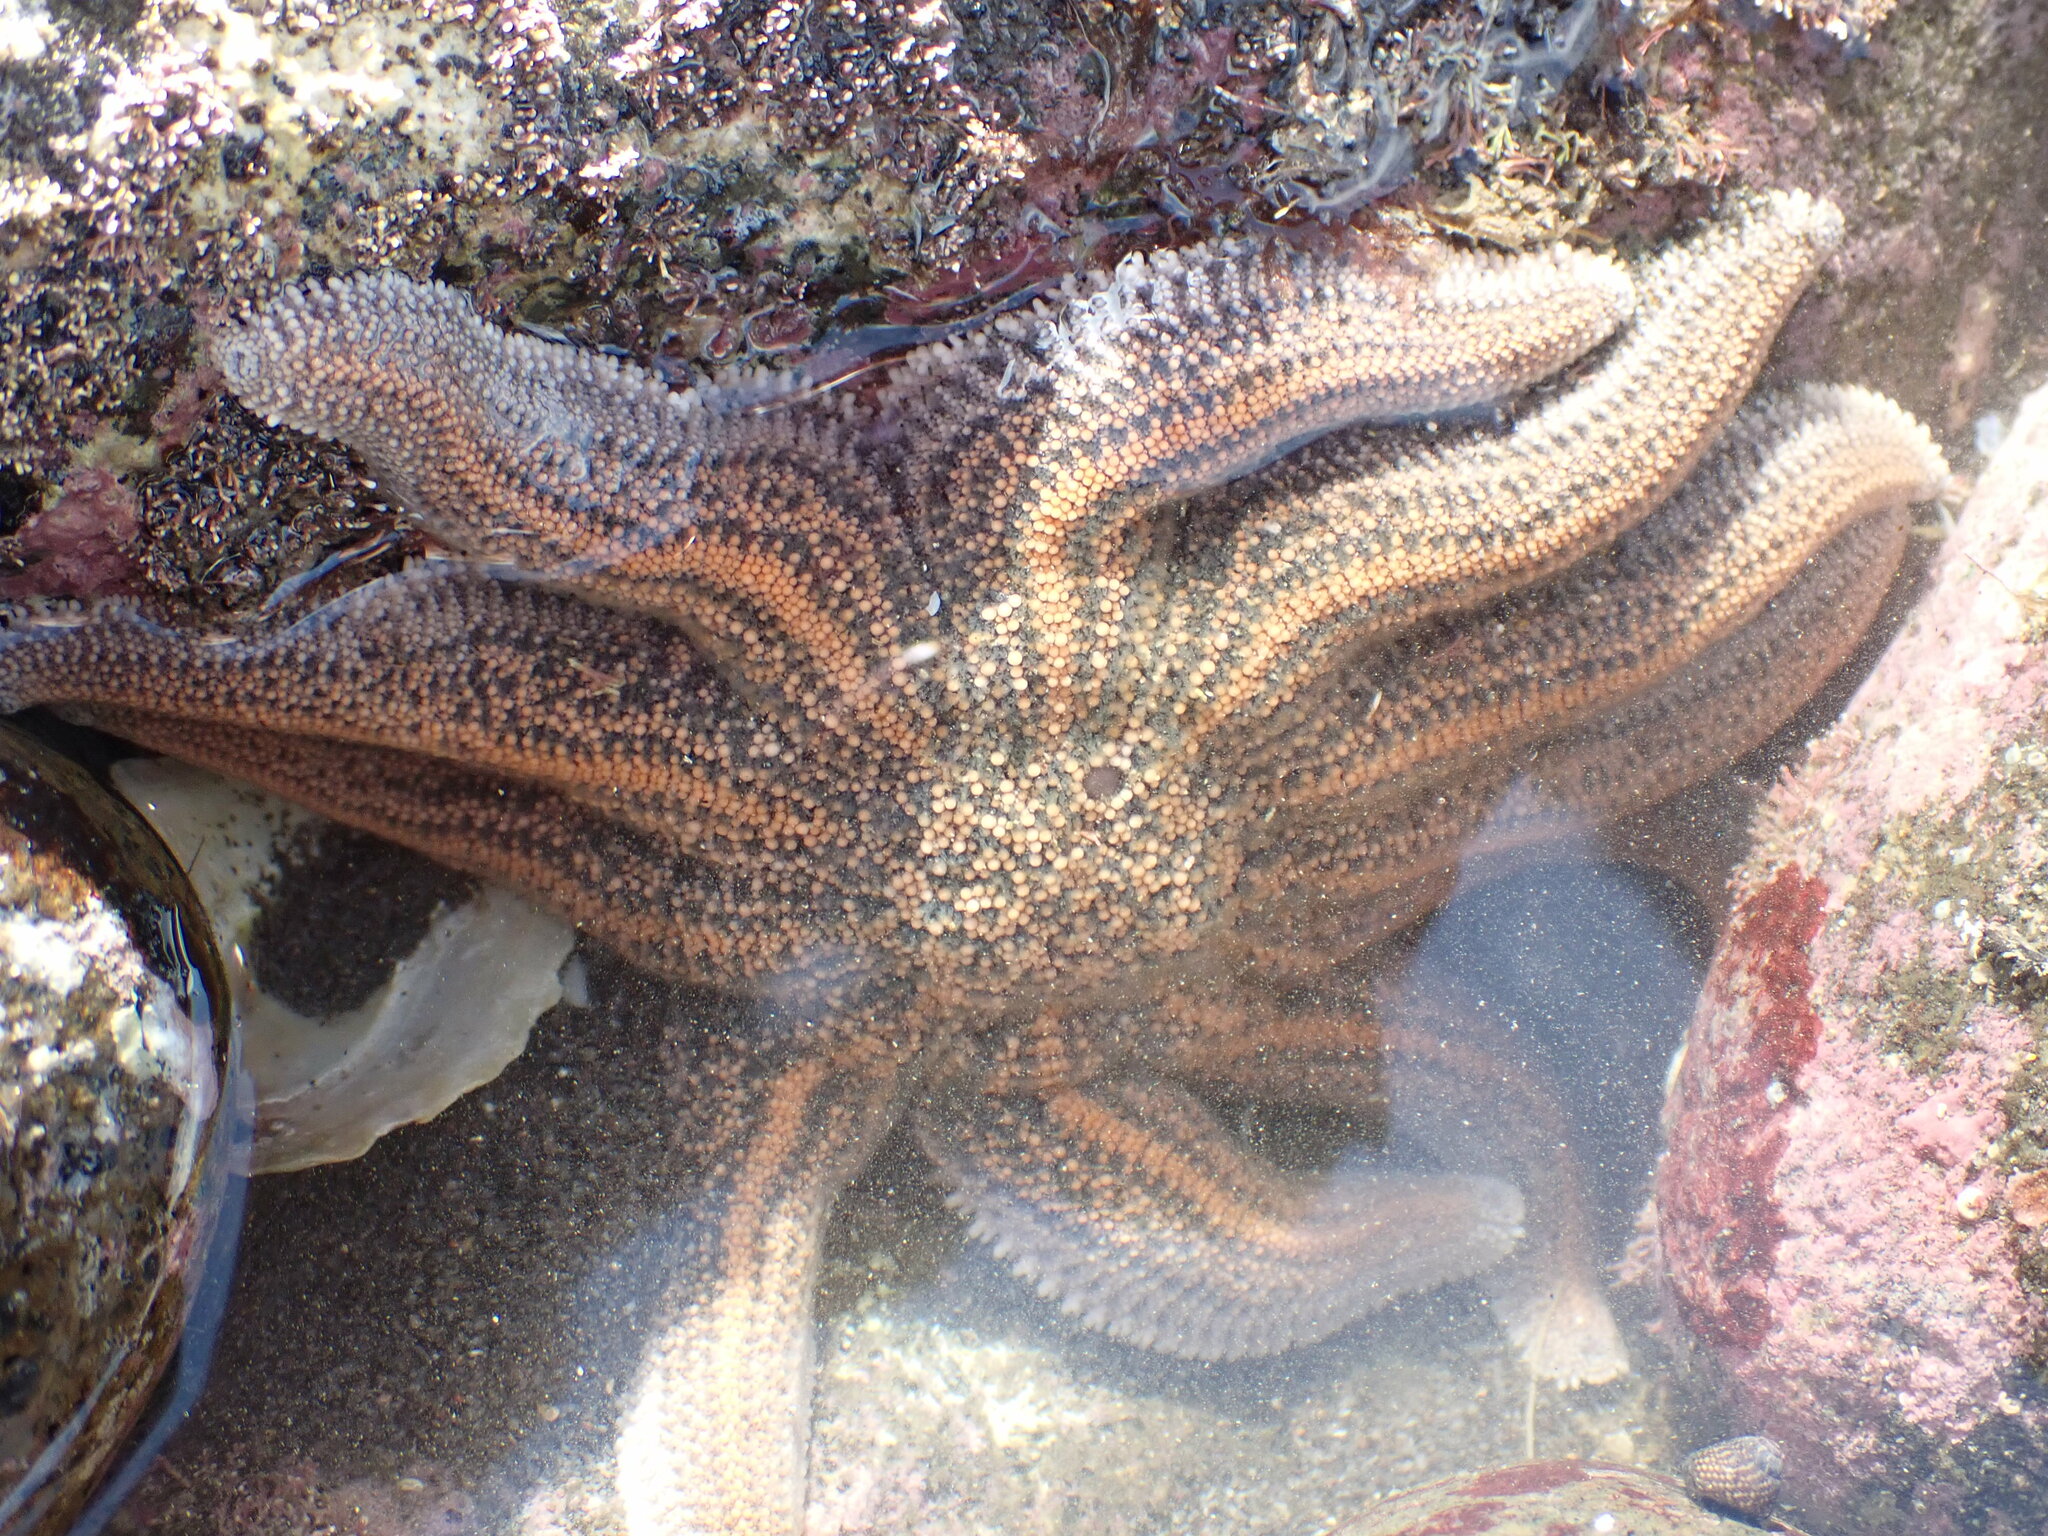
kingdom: Animalia
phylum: Echinodermata
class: Asteroidea
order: Forcipulatida
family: Stichasteridae
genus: Stichaster
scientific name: Stichaster australis
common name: Reef starfish
